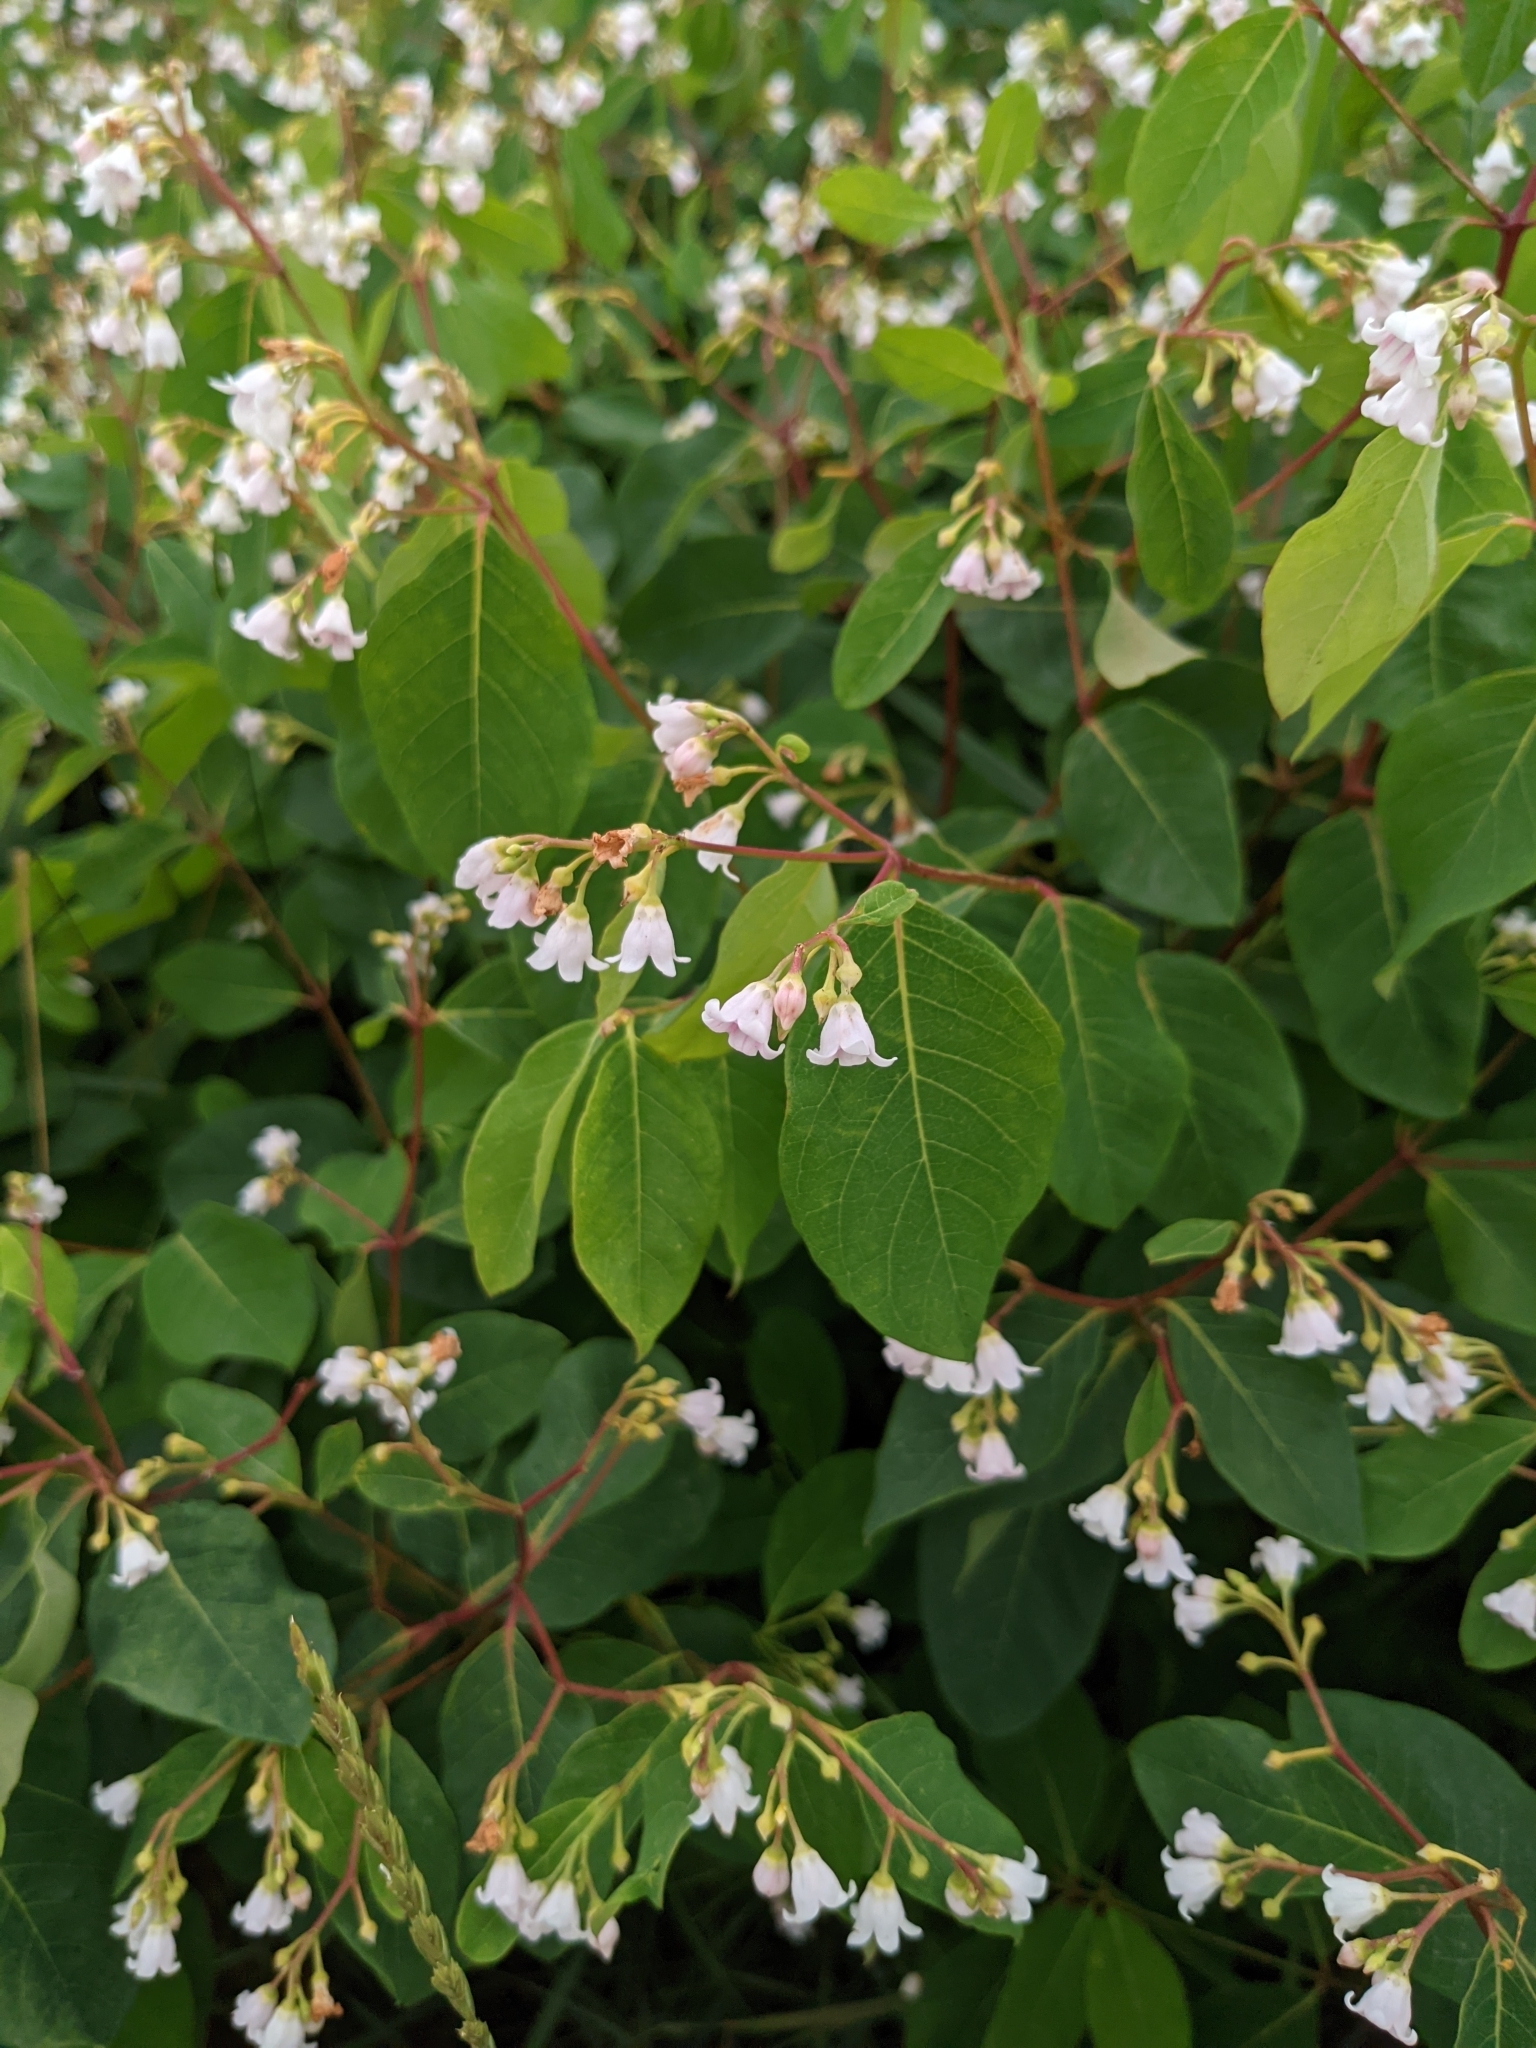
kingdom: Plantae
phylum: Tracheophyta
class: Magnoliopsida
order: Gentianales
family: Apocynaceae
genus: Apocynum
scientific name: Apocynum androsaemifolium
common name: Spreading dogbane
